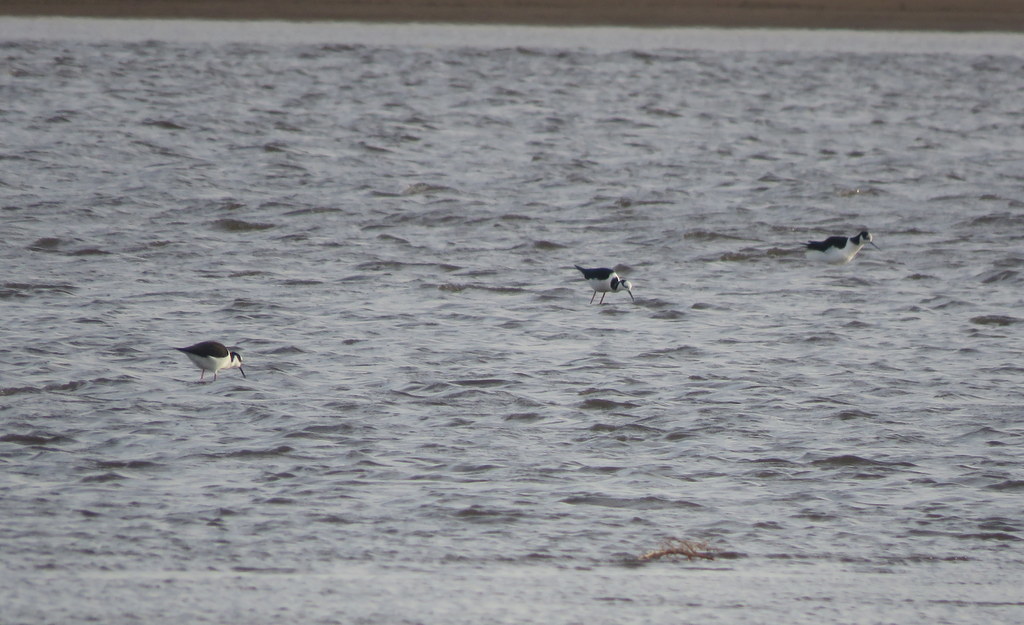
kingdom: Animalia
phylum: Chordata
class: Aves
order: Charadriiformes
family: Recurvirostridae
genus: Himantopus
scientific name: Himantopus mexicanus
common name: Black-necked stilt
